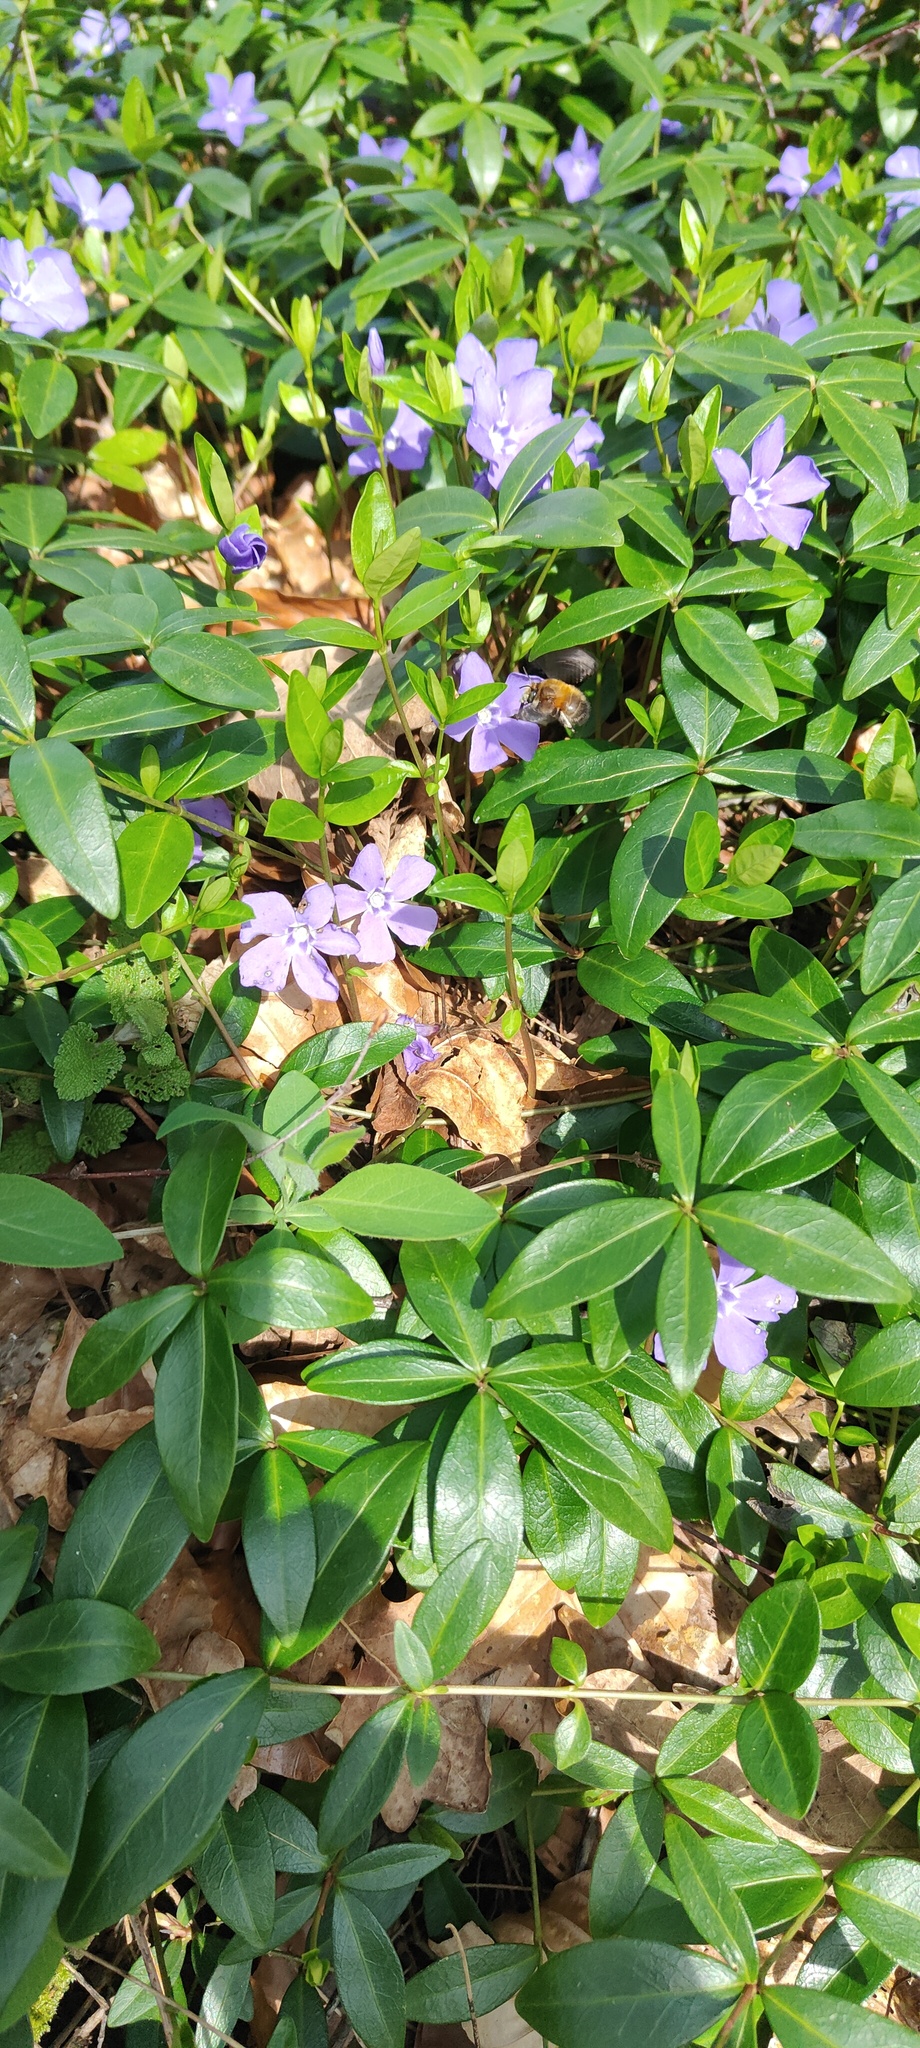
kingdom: Animalia
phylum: Arthropoda
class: Insecta
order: Hymenoptera
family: Apidae
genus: Anthophora
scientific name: Anthophora plumipes
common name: Hairy-footed flower bee
